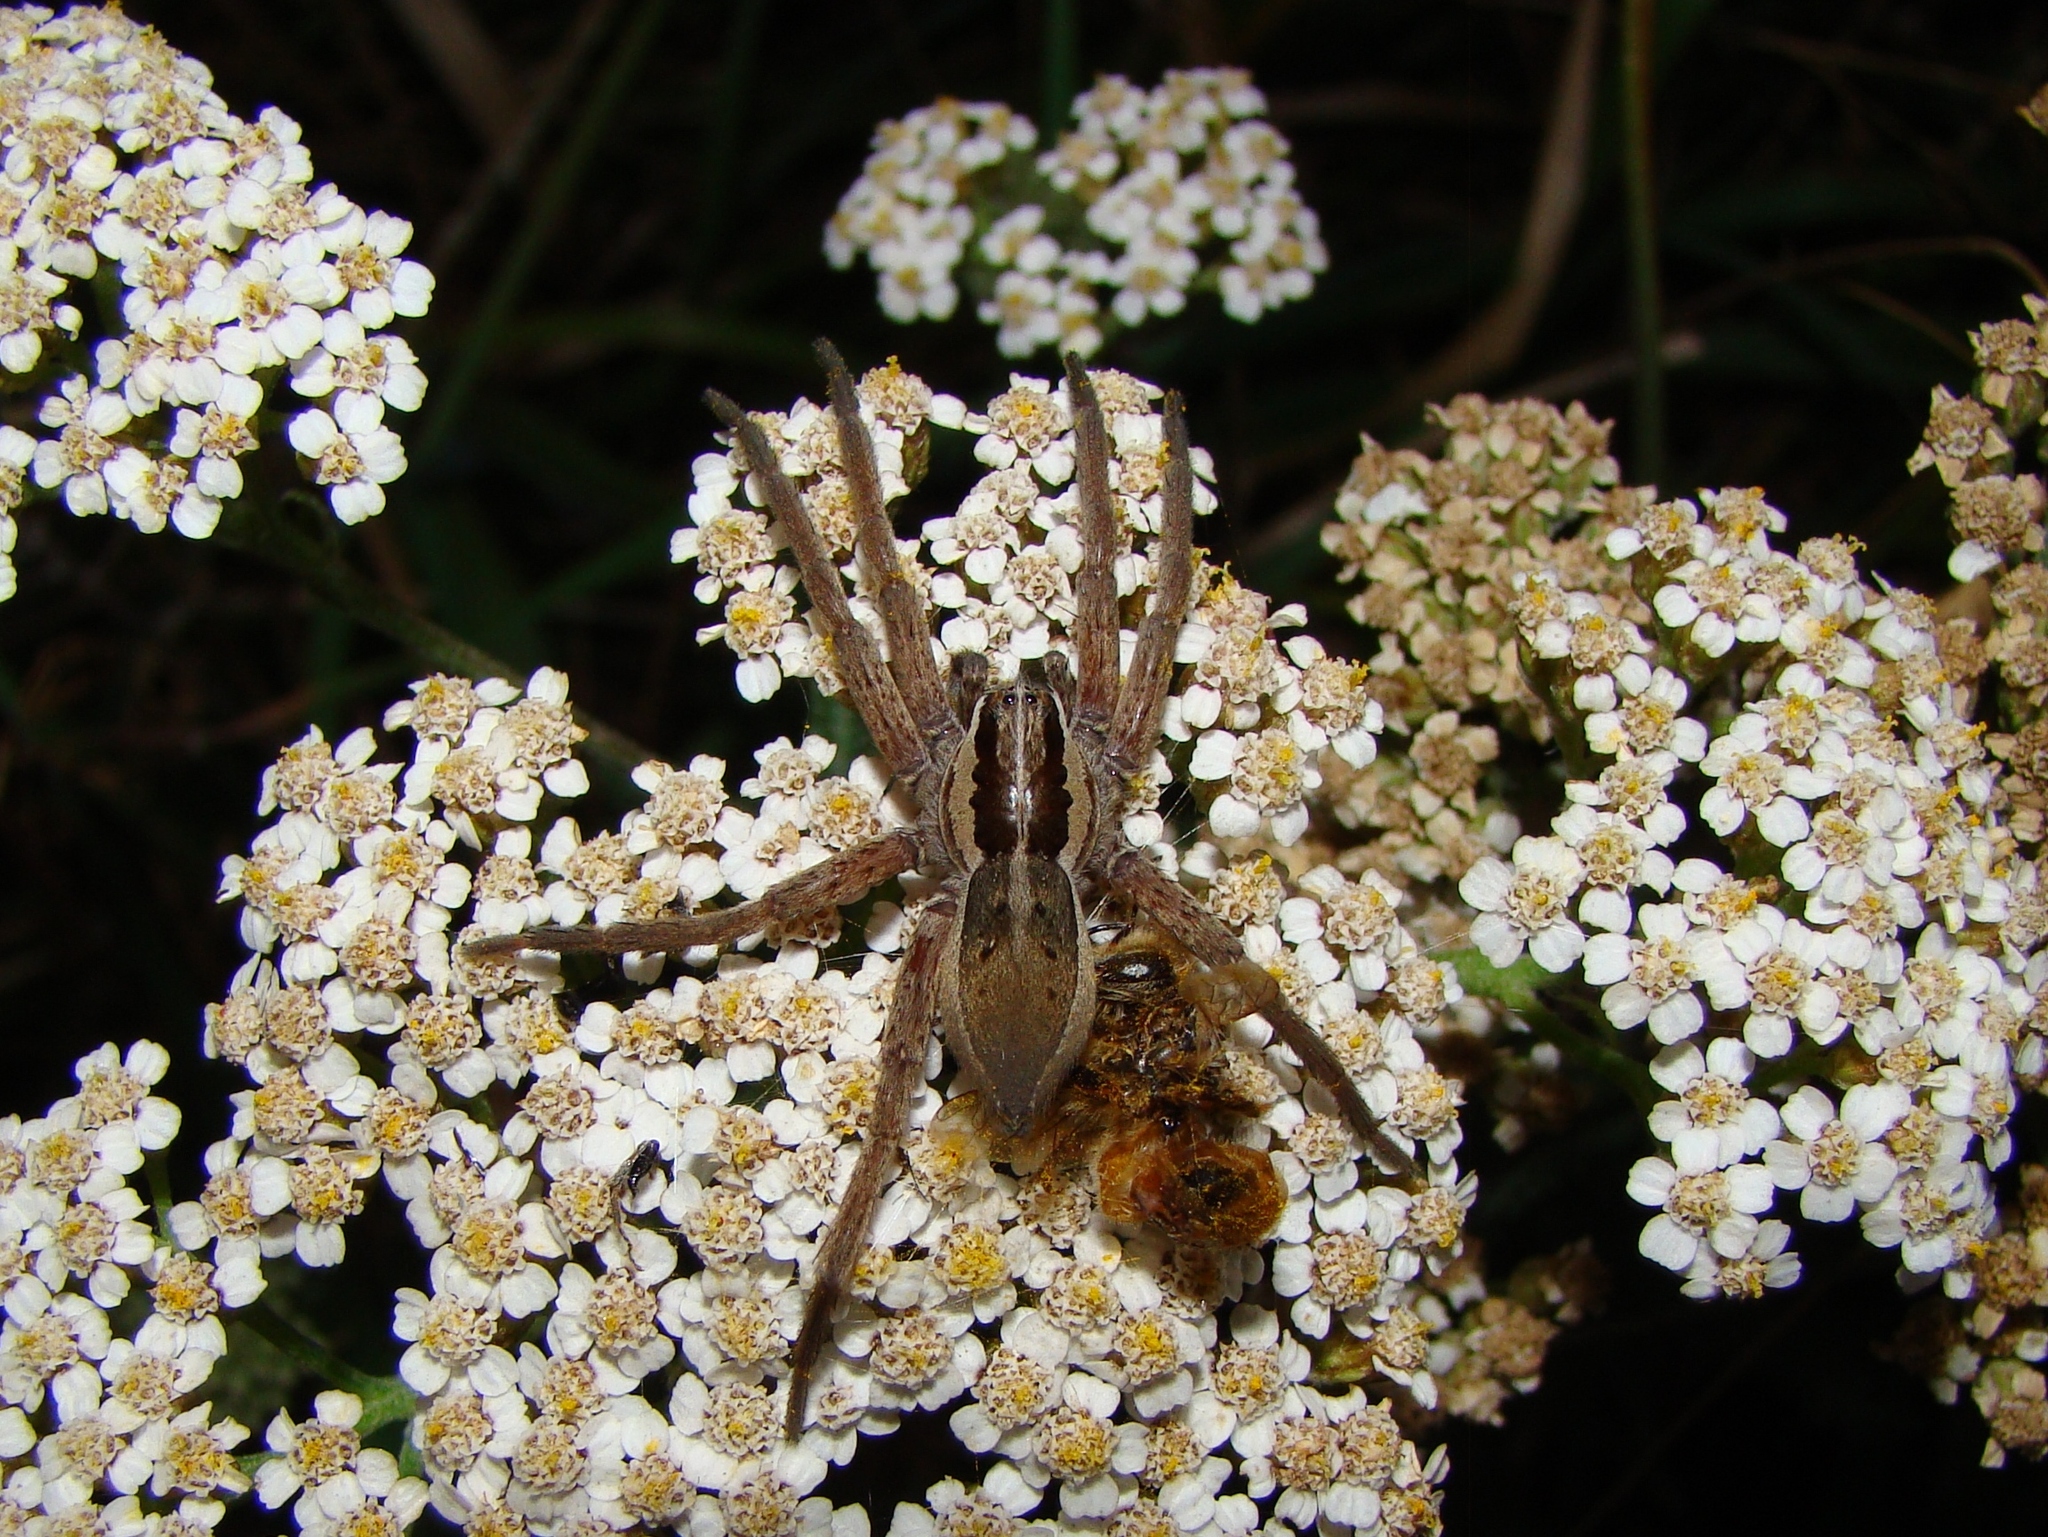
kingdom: Animalia
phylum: Arthropoda
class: Arachnida
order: Araneae
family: Pisauridae
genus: Dolomedes
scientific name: Dolomedes minor
